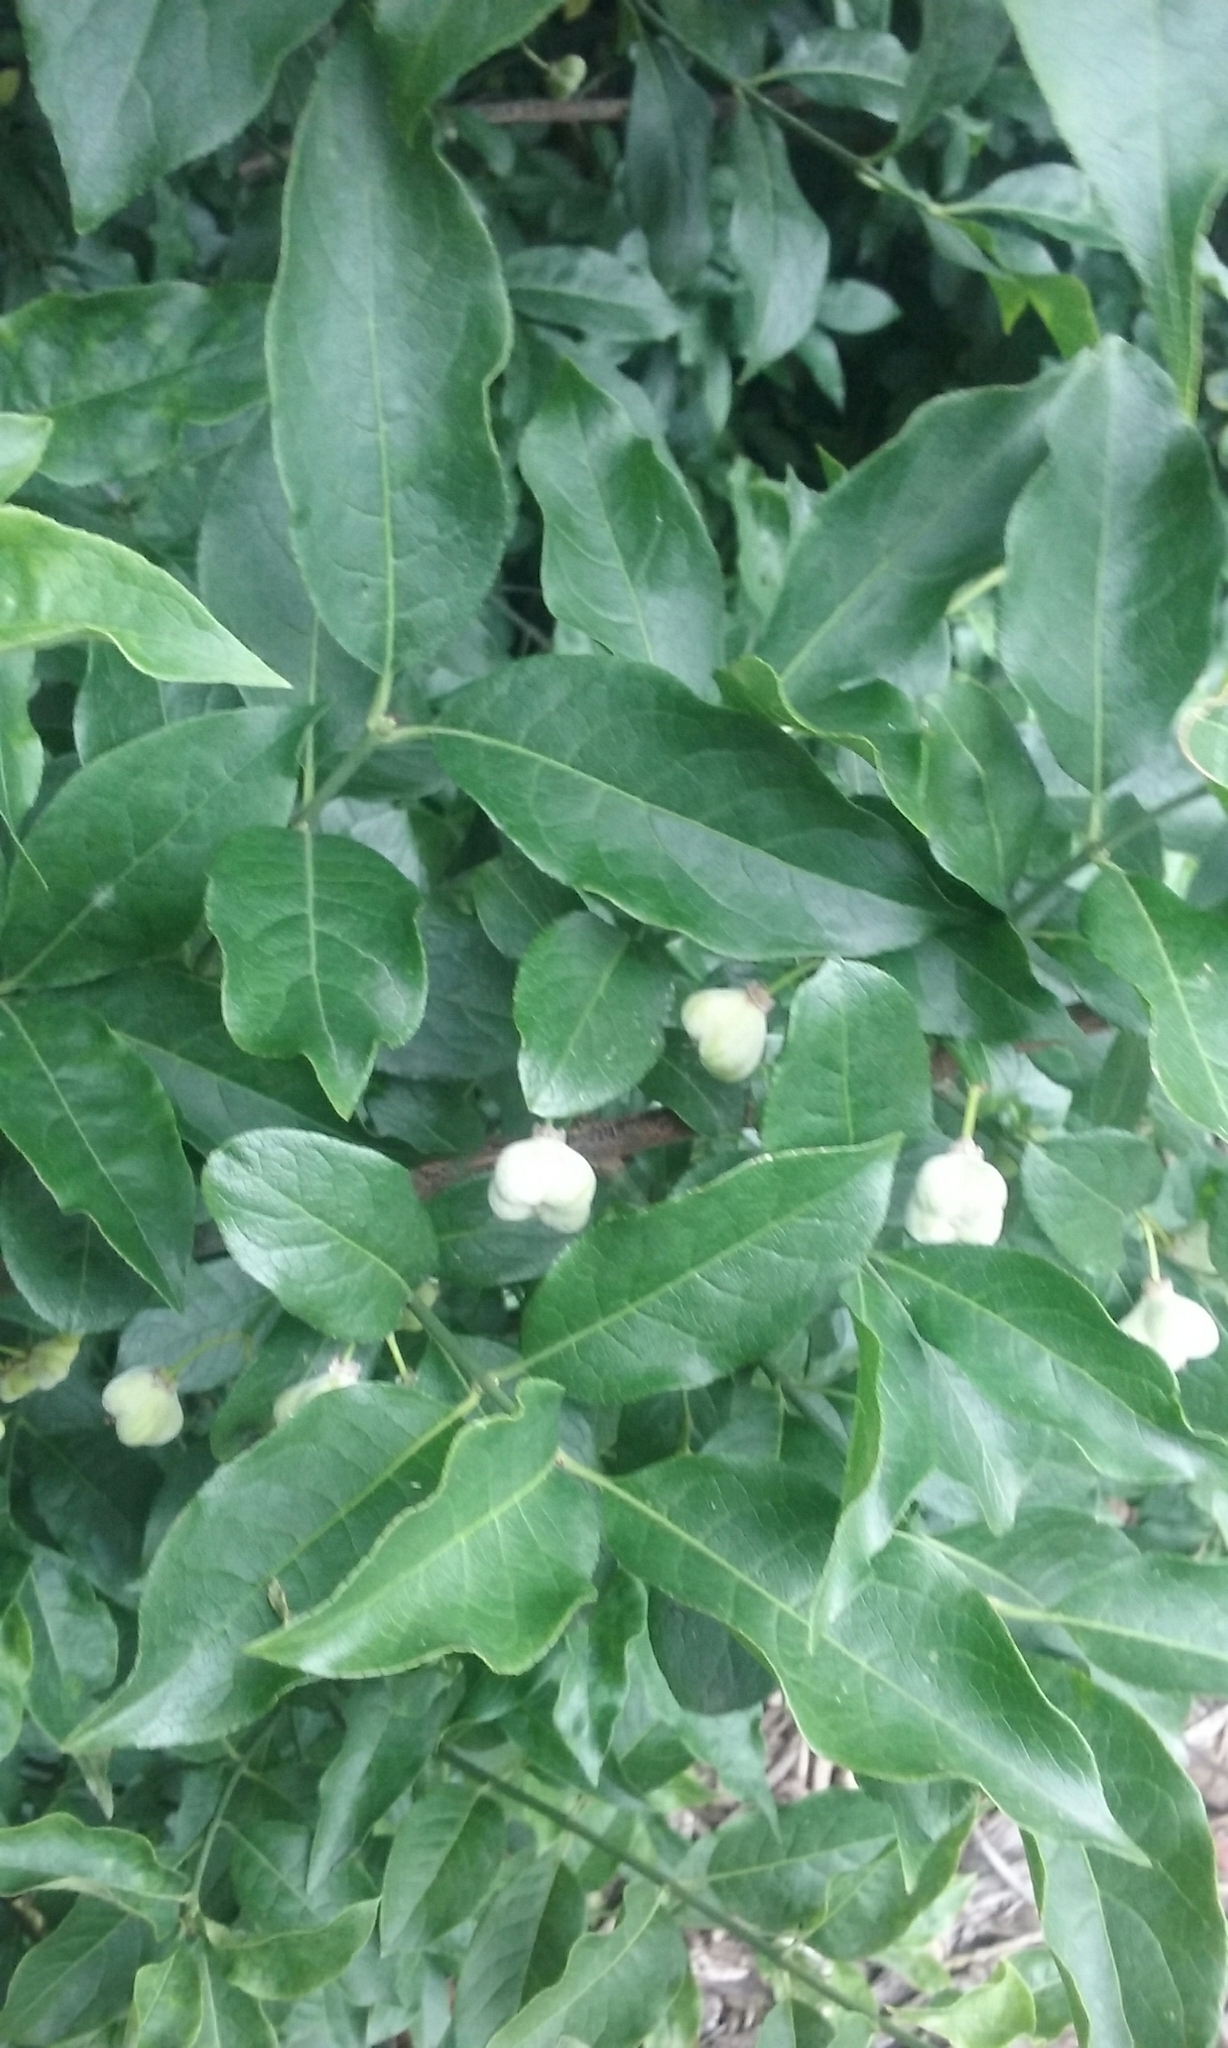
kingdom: Plantae
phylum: Tracheophyta
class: Magnoliopsida
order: Celastrales
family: Celastraceae
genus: Euonymus
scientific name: Euonymus europaeus
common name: Spindle
